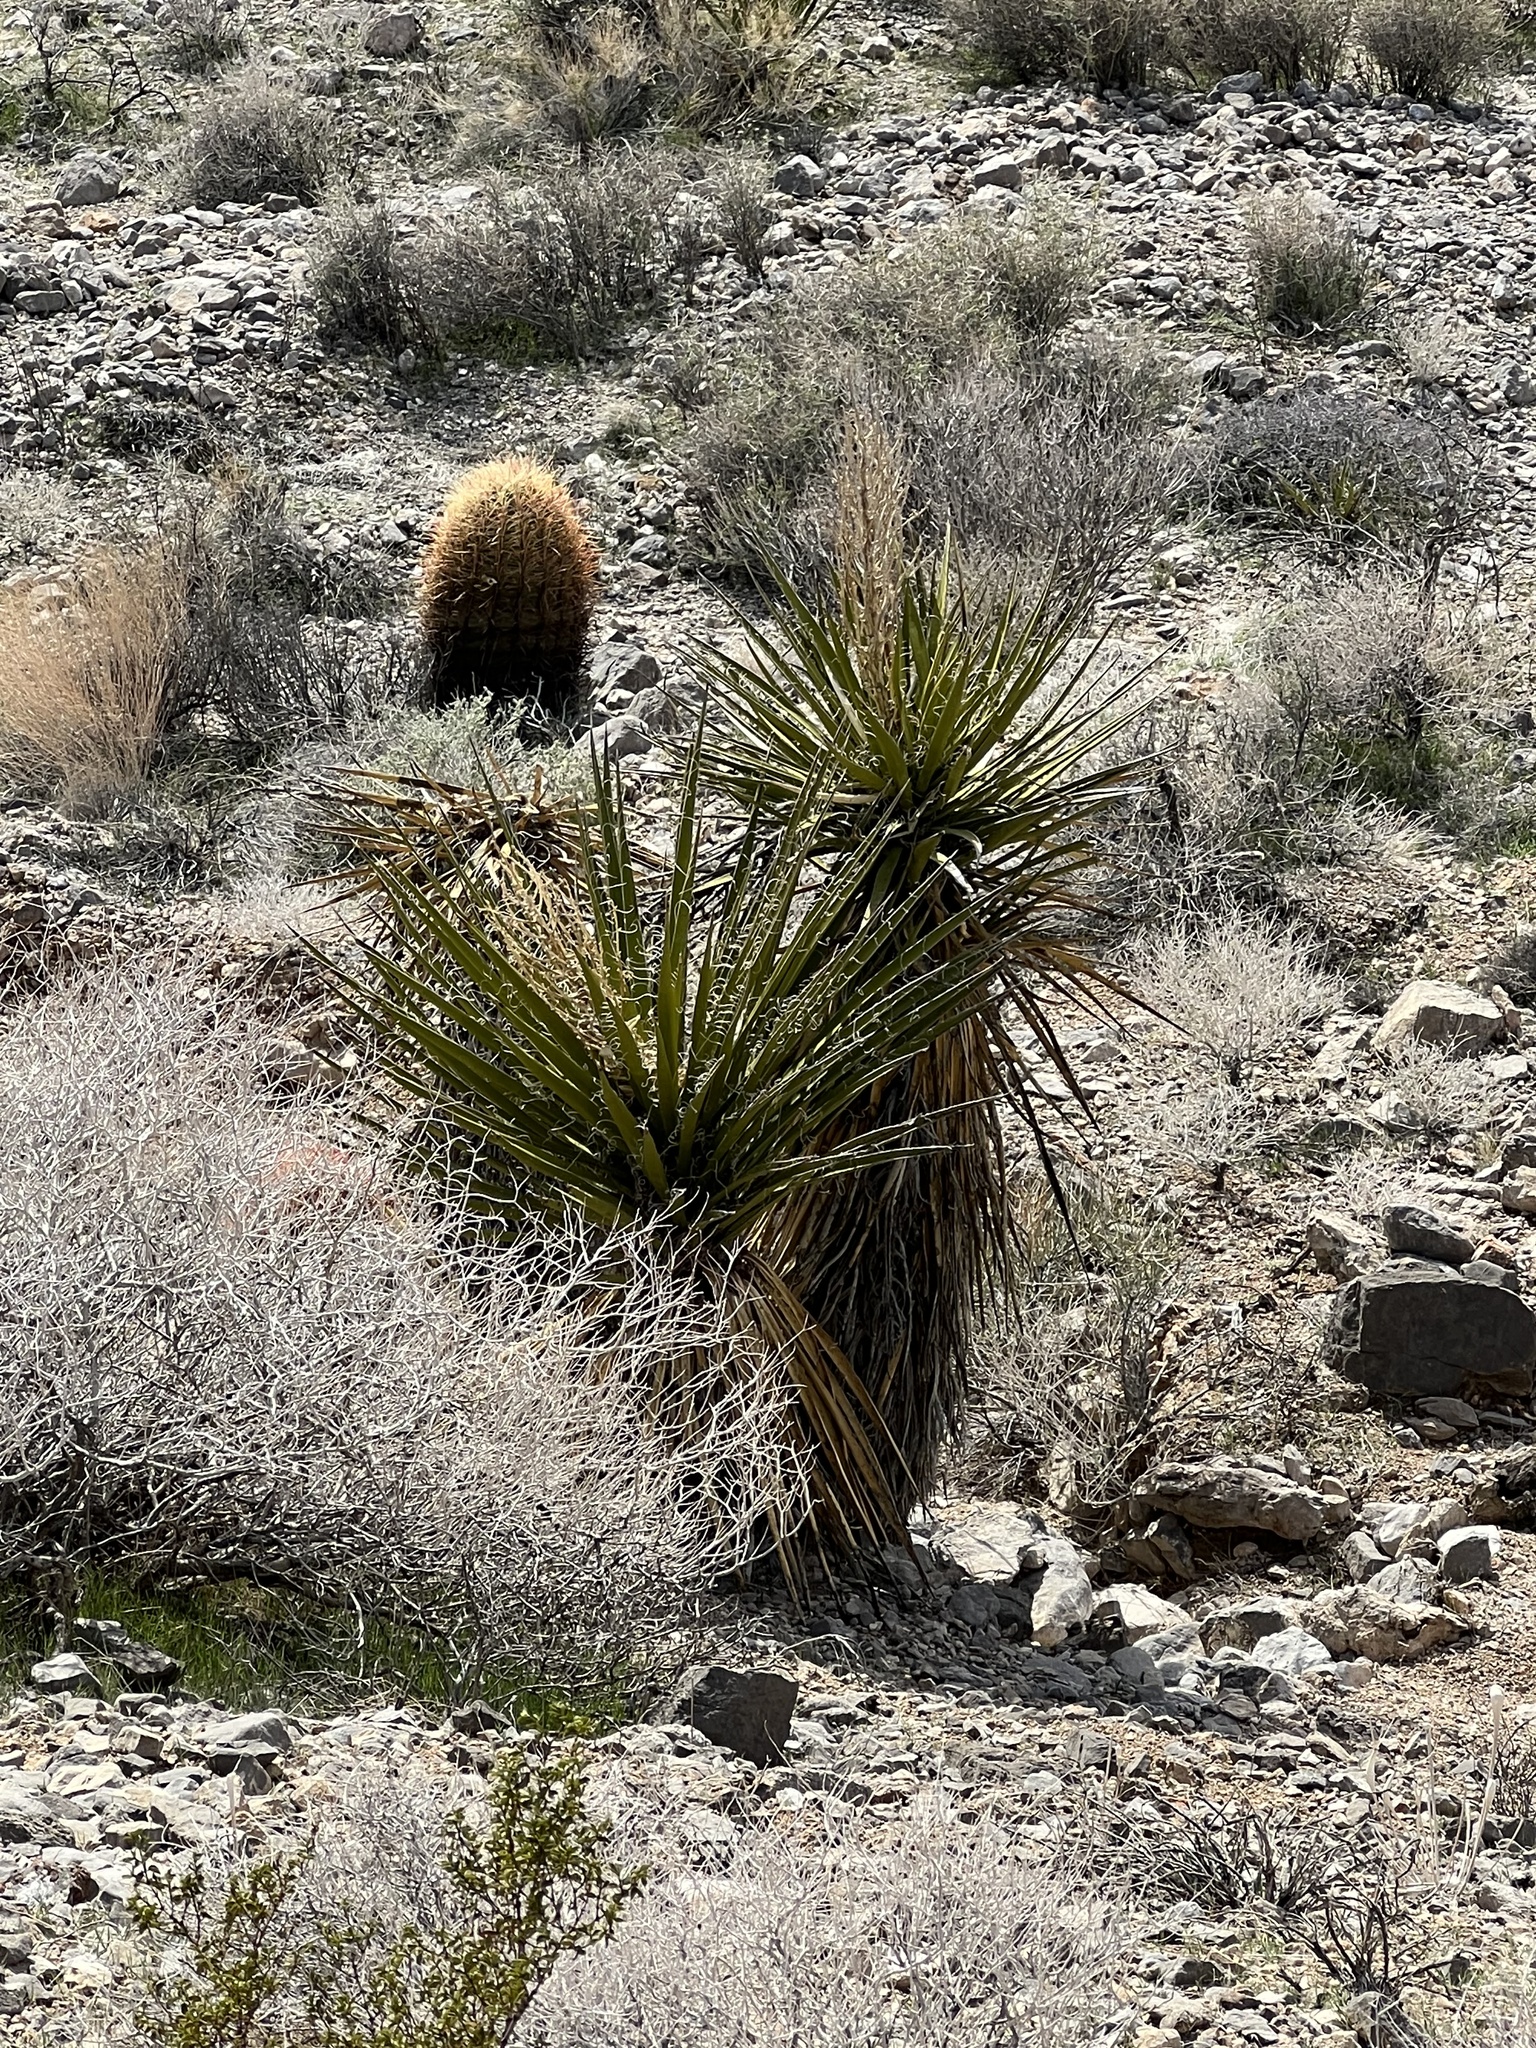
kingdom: Plantae
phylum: Tracheophyta
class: Liliopsida
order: Asparagales
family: Asparagaceae
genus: Yucca
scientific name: Yucca schidigera
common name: Mojave yucca
